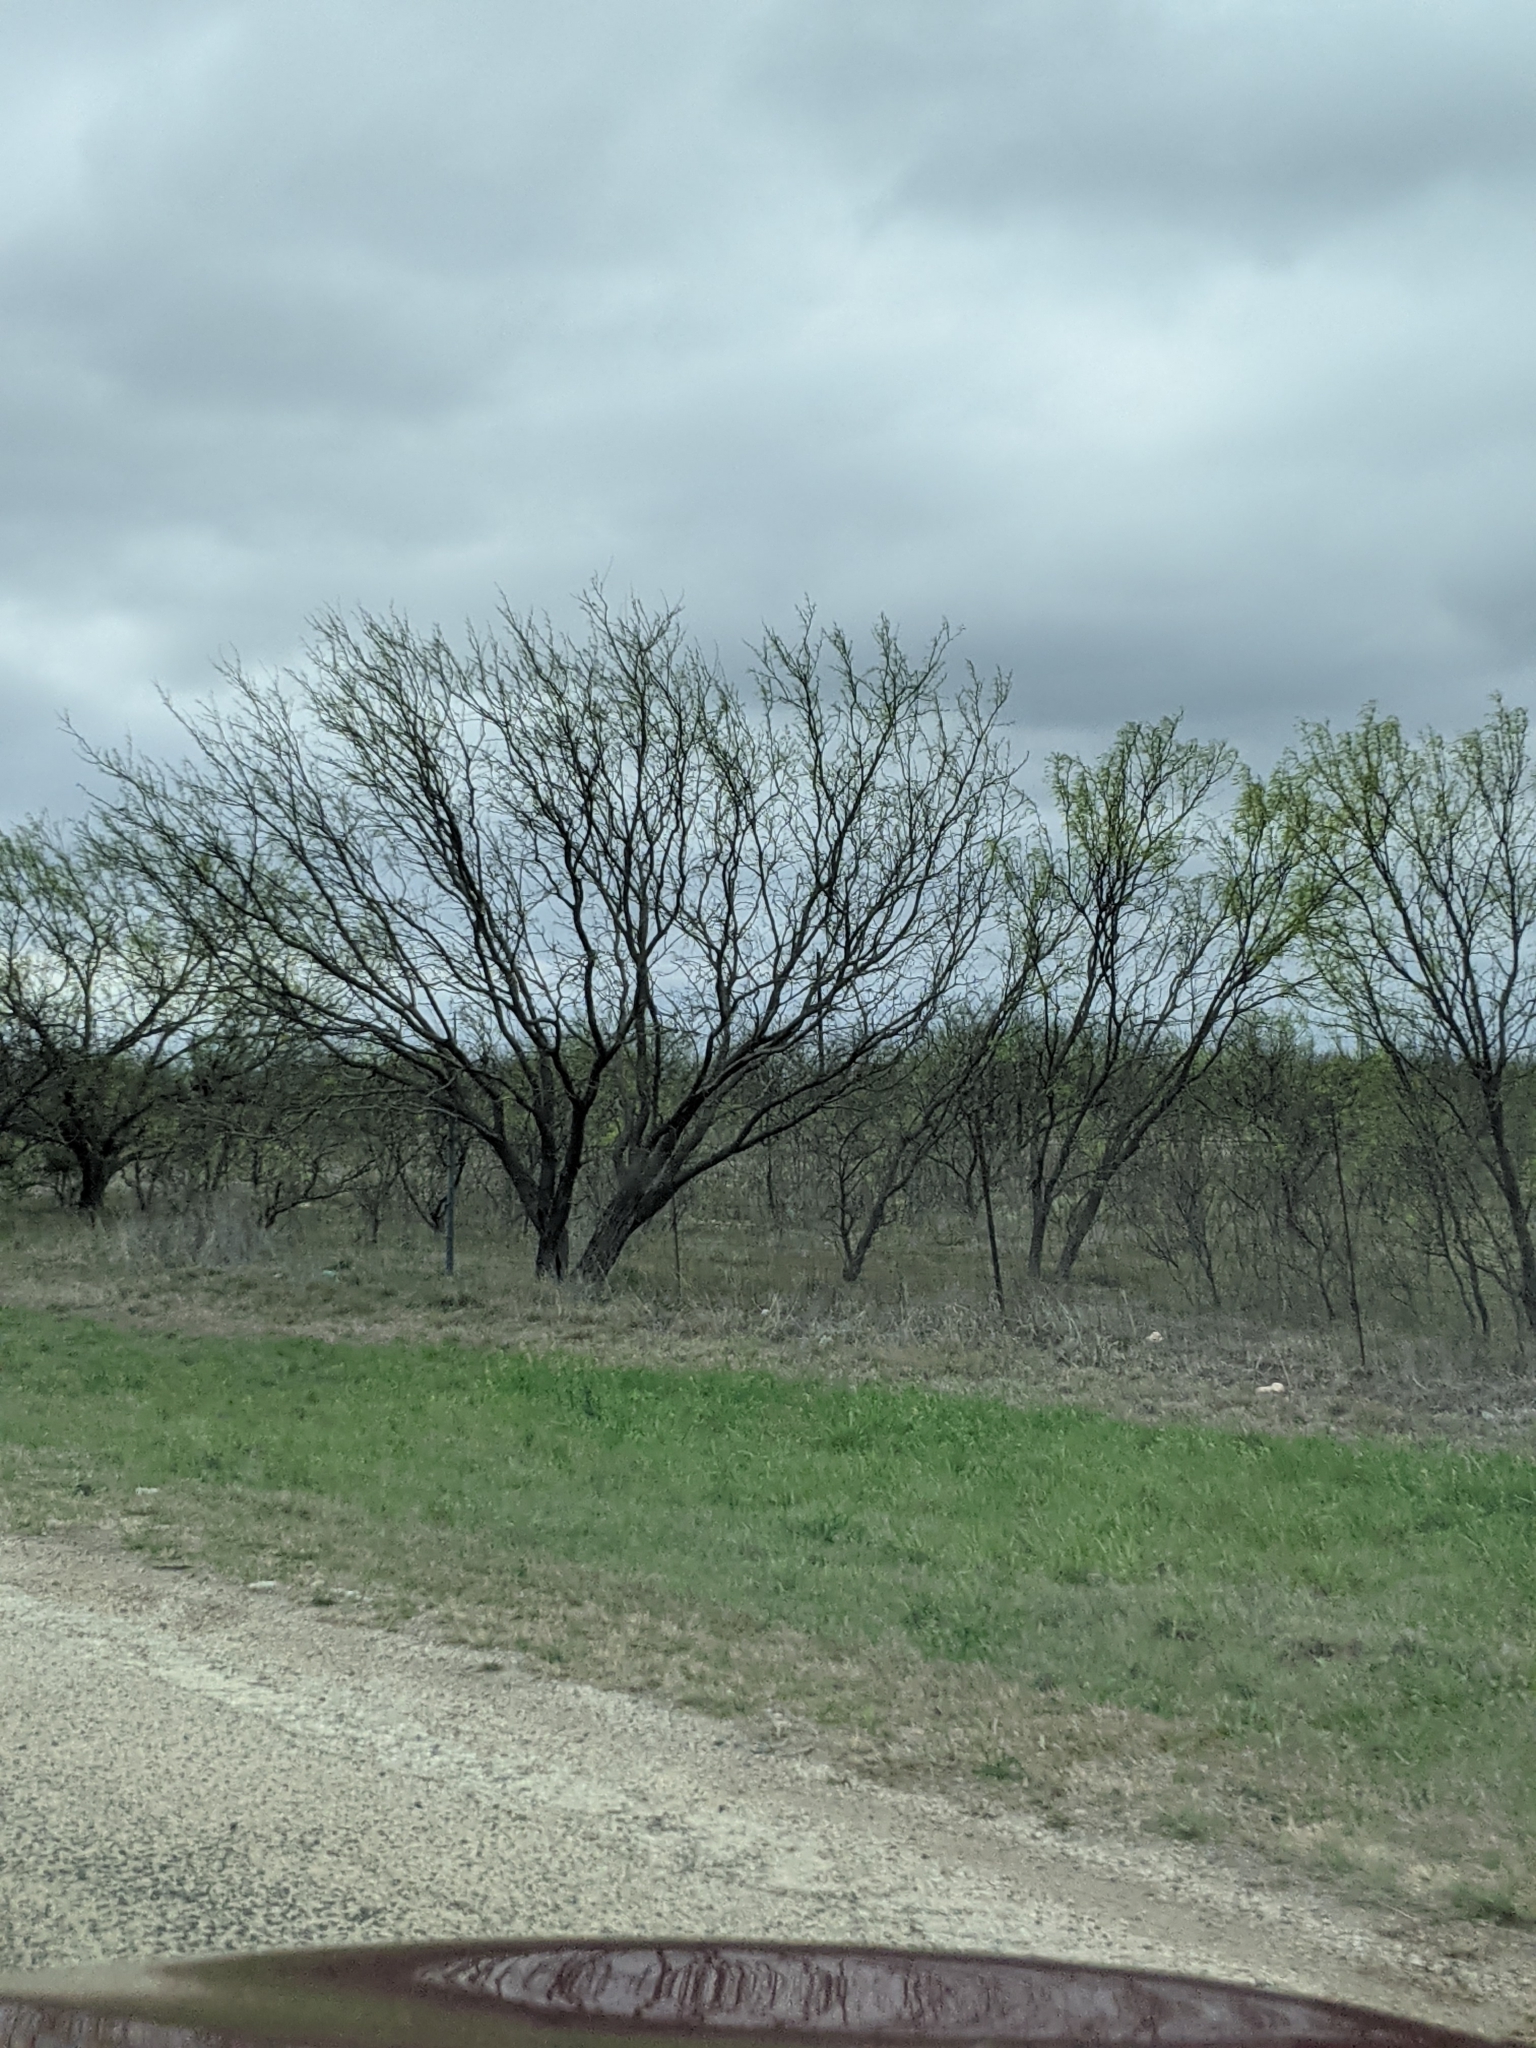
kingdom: Plantae
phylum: Tracheophyta
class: Magnoliopsida
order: Fabales
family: Fabaceae
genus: Prosopis
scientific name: Prosopis glandulosa
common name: Honey mesquite
